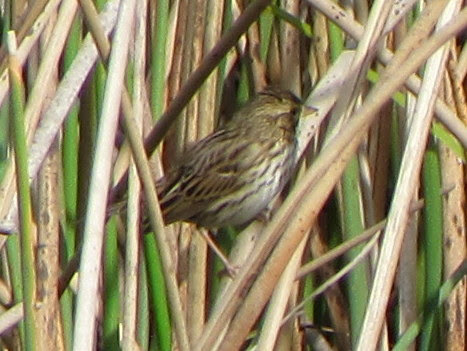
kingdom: Animalia
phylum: Chordata
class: Aves
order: Passeriformes
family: Passerellidae
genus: Passerculus
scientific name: Passerculus sandwichensis
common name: Savannah sparrow
